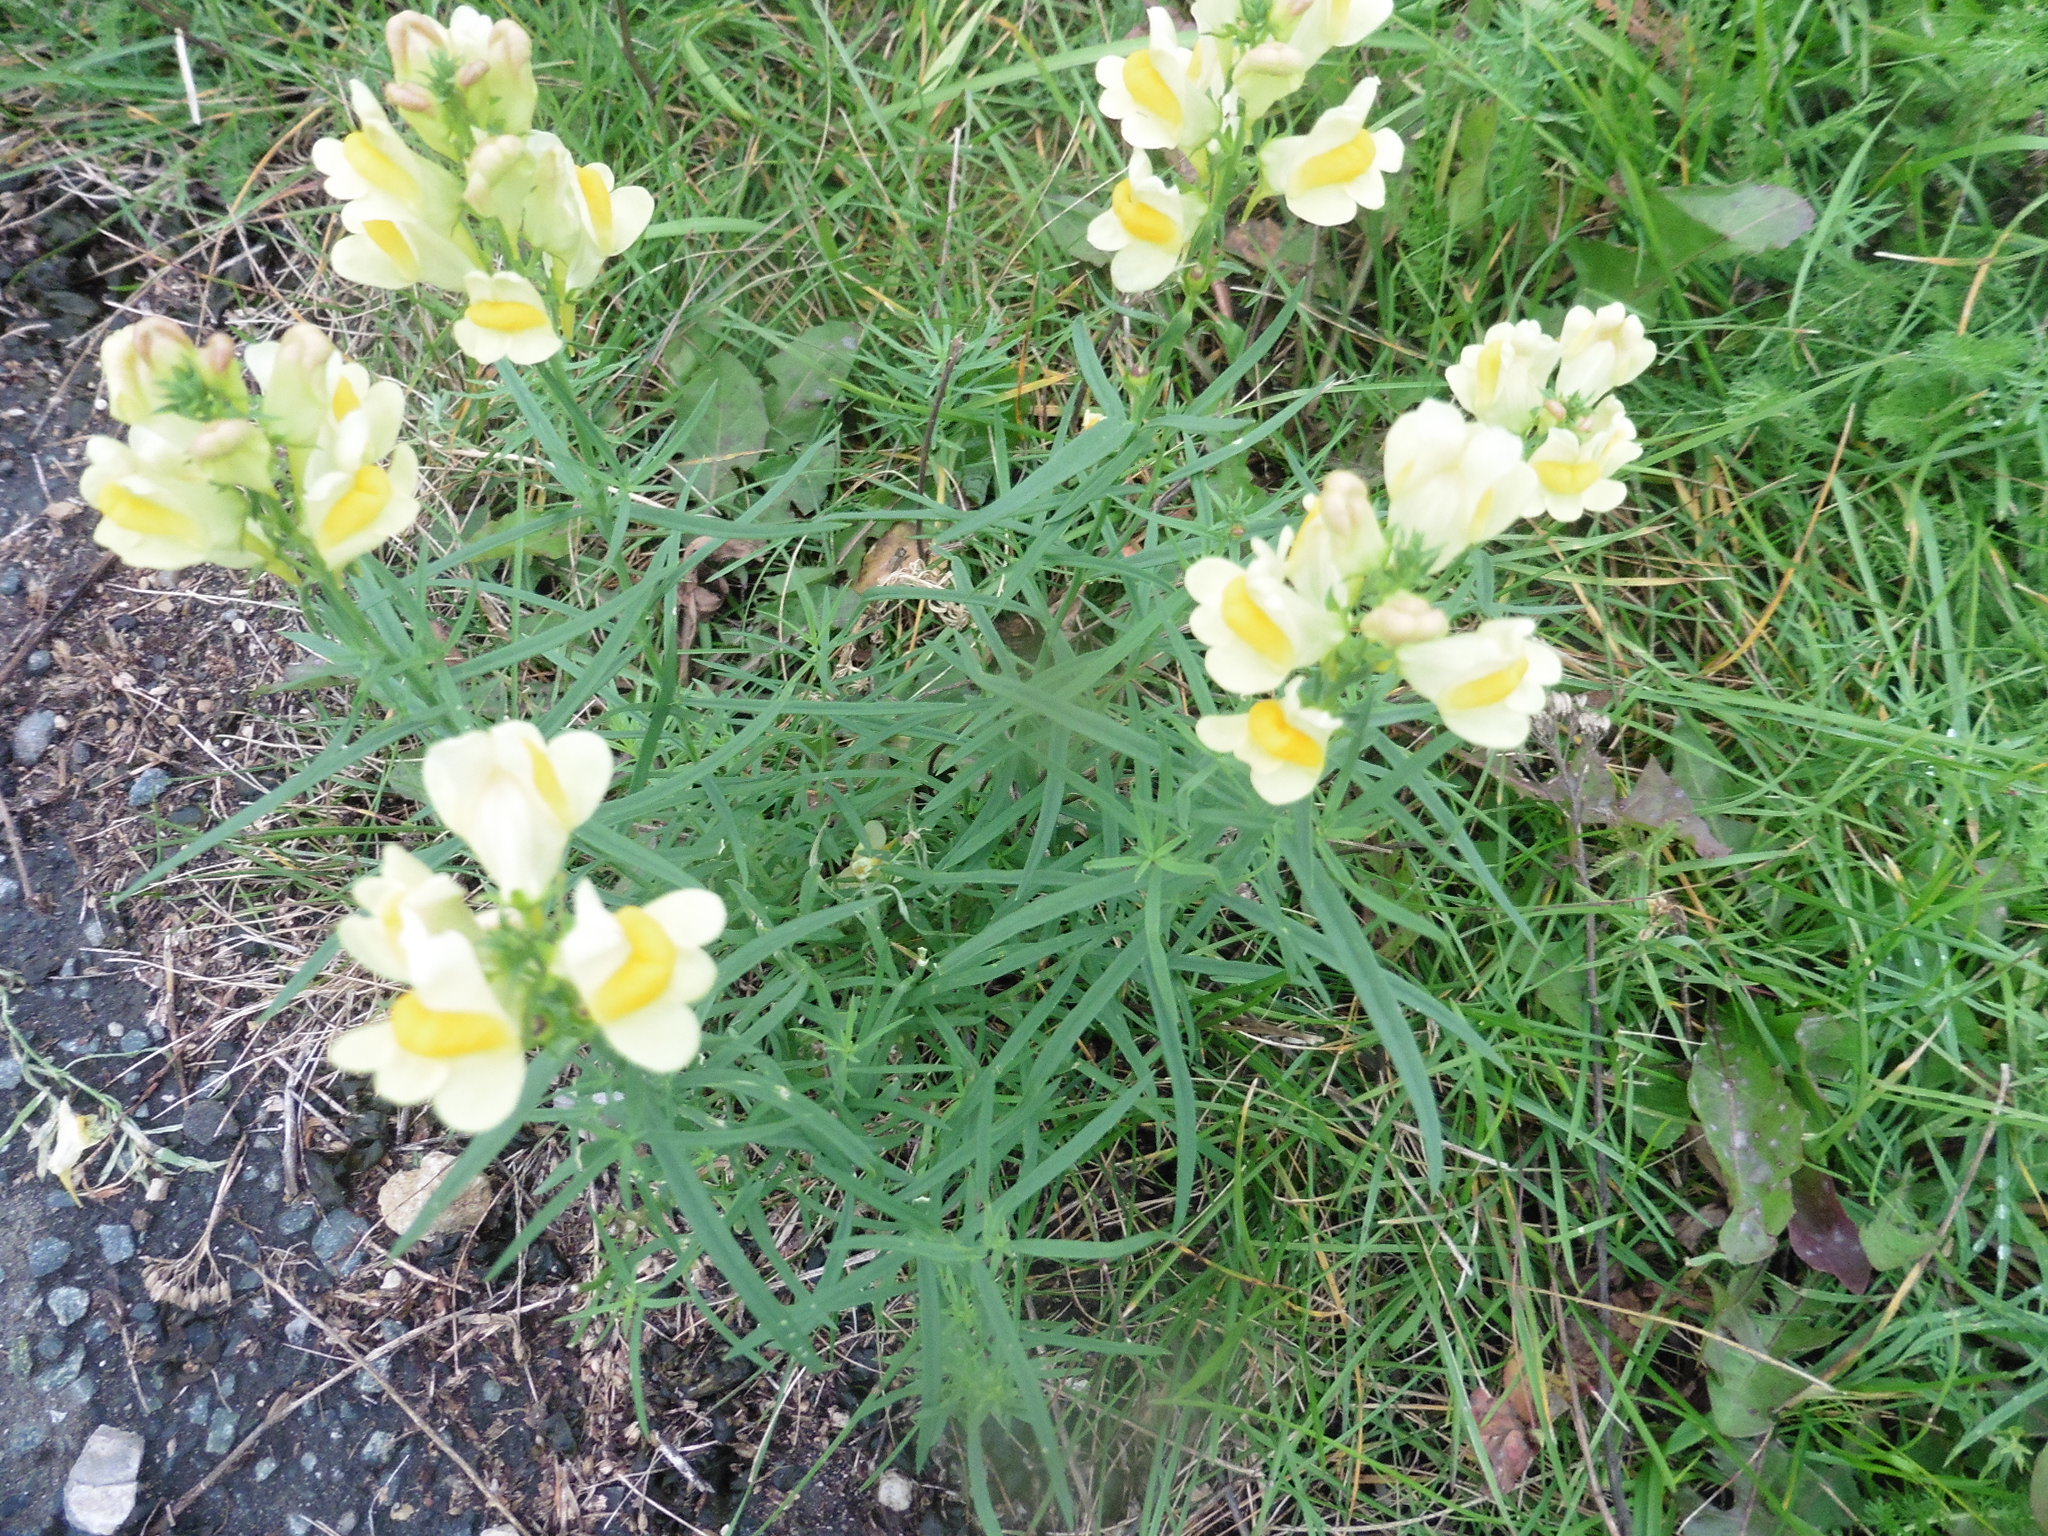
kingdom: Plantae
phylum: Tracheophyta
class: Magnoliopsida
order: Lamiales
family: Plantaginaceae
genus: Linaria
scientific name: Linaria vulgaris
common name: Butter and eggs
